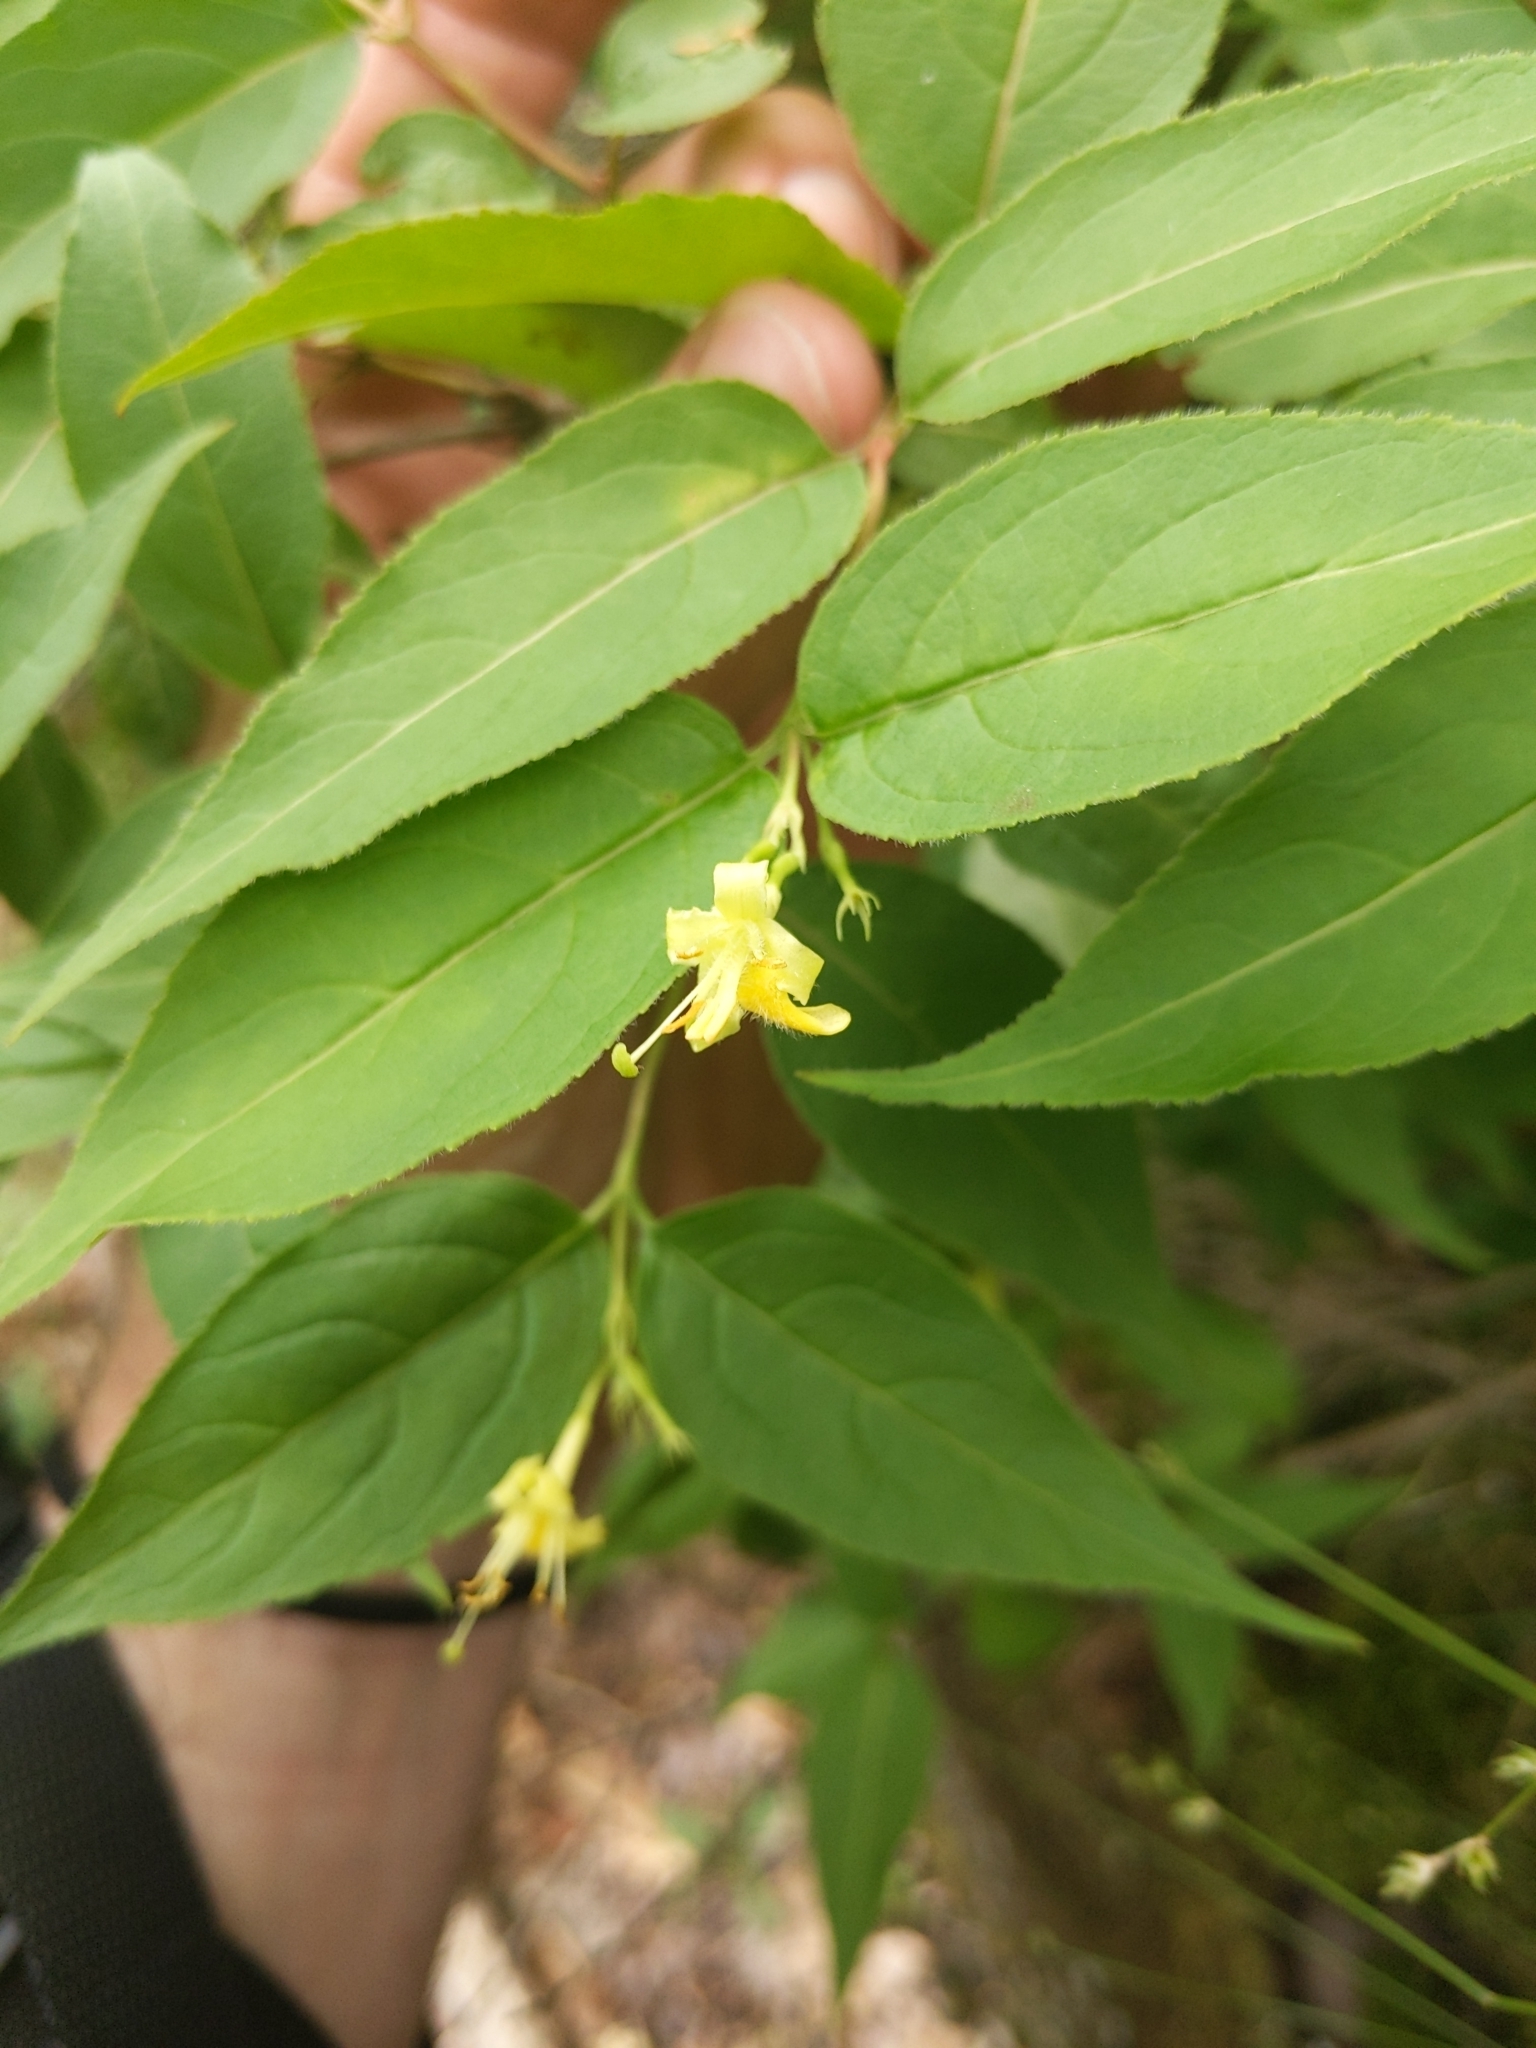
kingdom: Plantae
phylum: Tracheophyta
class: Magnoliopsida
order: Dipsacales
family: Caprifoliaceae
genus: Diervilla
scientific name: Diervilla lonicera
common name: Bush-honeysuckle
